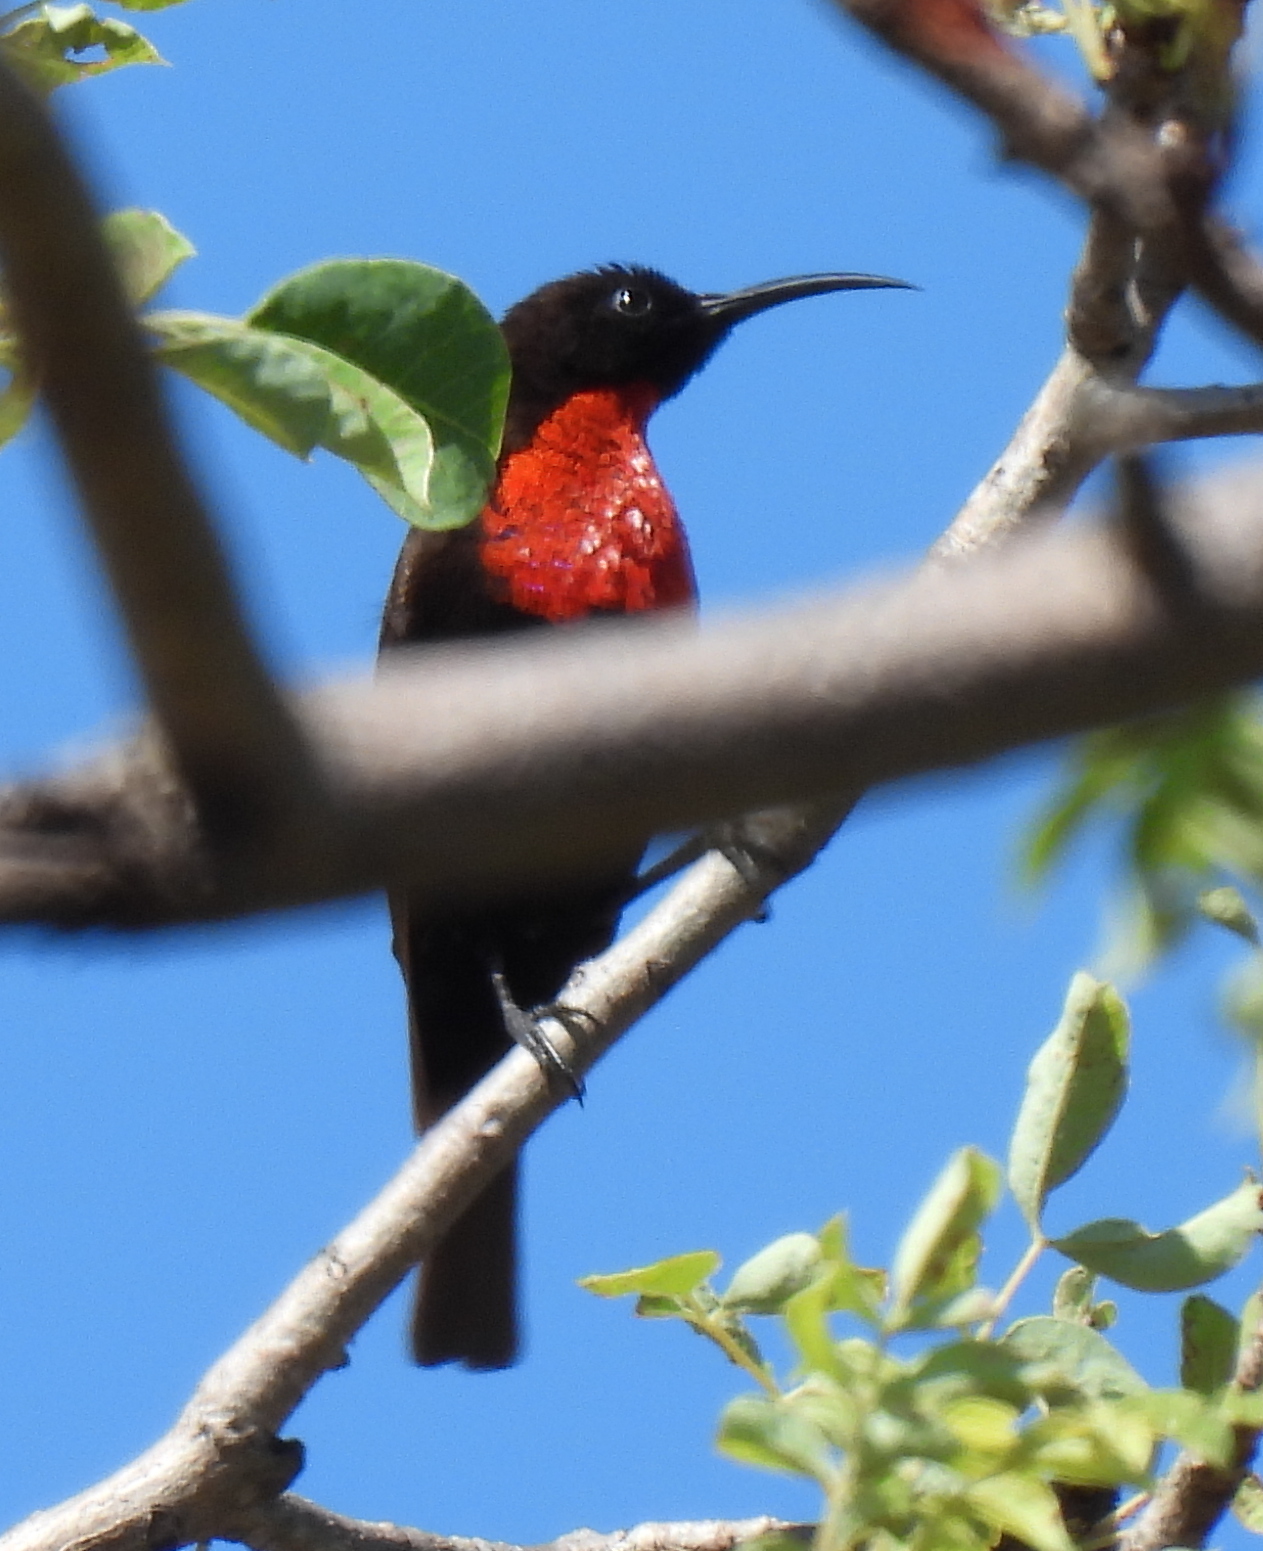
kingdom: Animalia
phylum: Chordata
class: Aves
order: Passeriformes
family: Nectariniidae
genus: Chalcomitra
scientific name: Chalcomitra senegalensis
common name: Scarlet-chested sunbird
